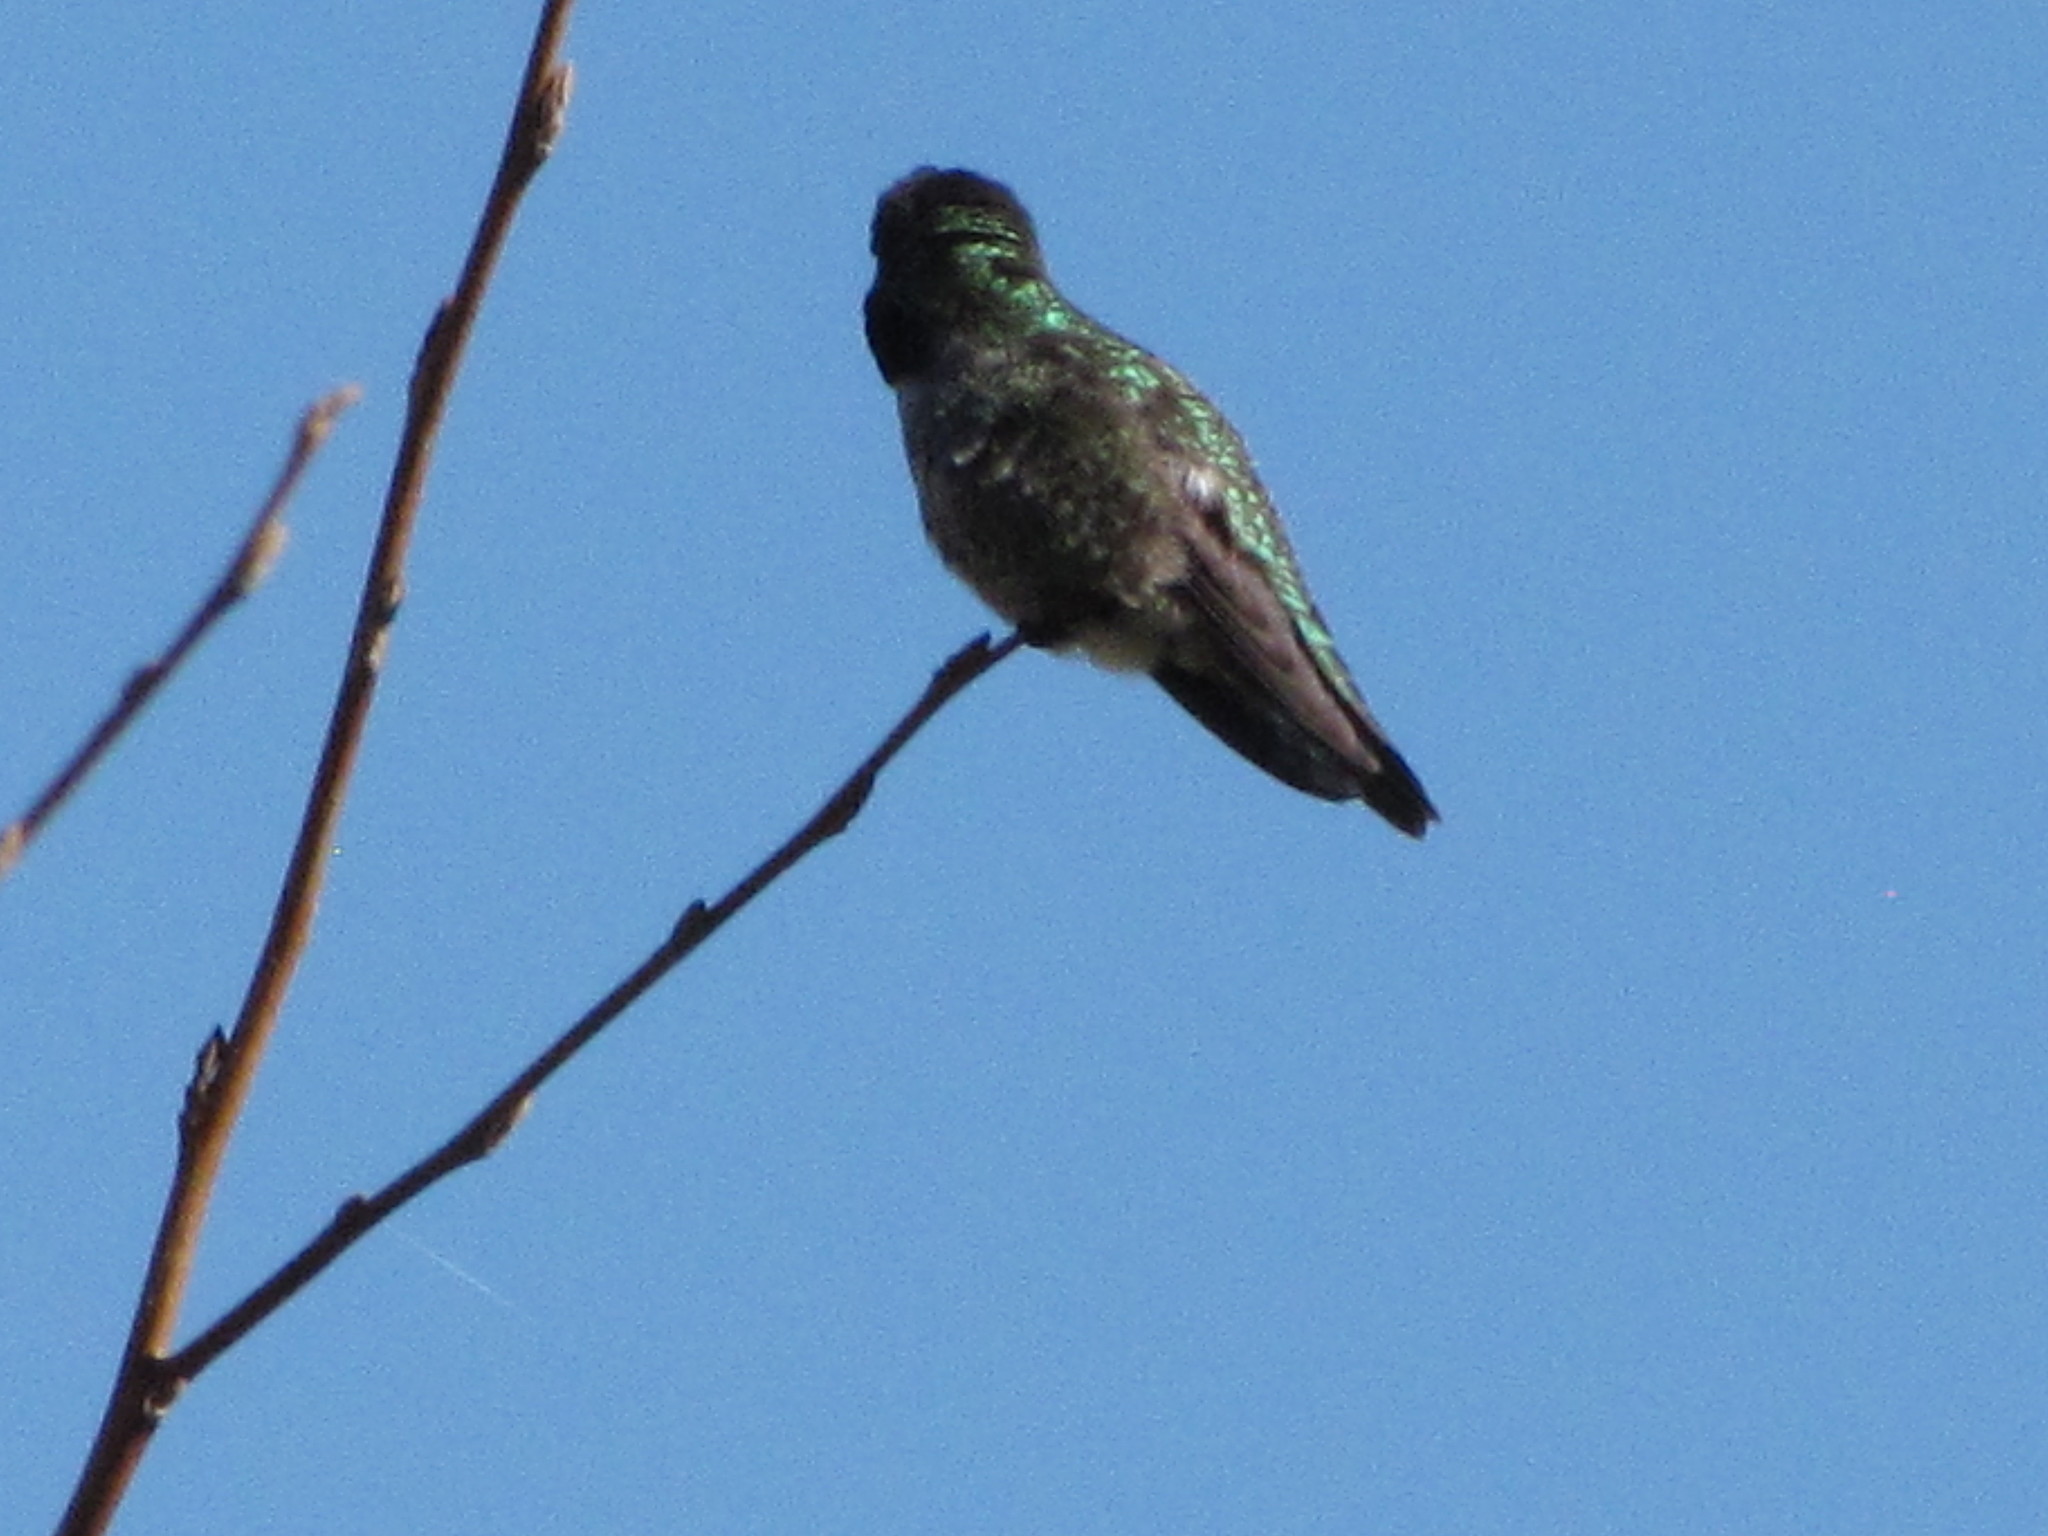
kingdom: Animalia
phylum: Chordata
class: Aves
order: Apodiformes
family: Trochilidae
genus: Calypte
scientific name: Calypte anna
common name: Anna's hummingbird
